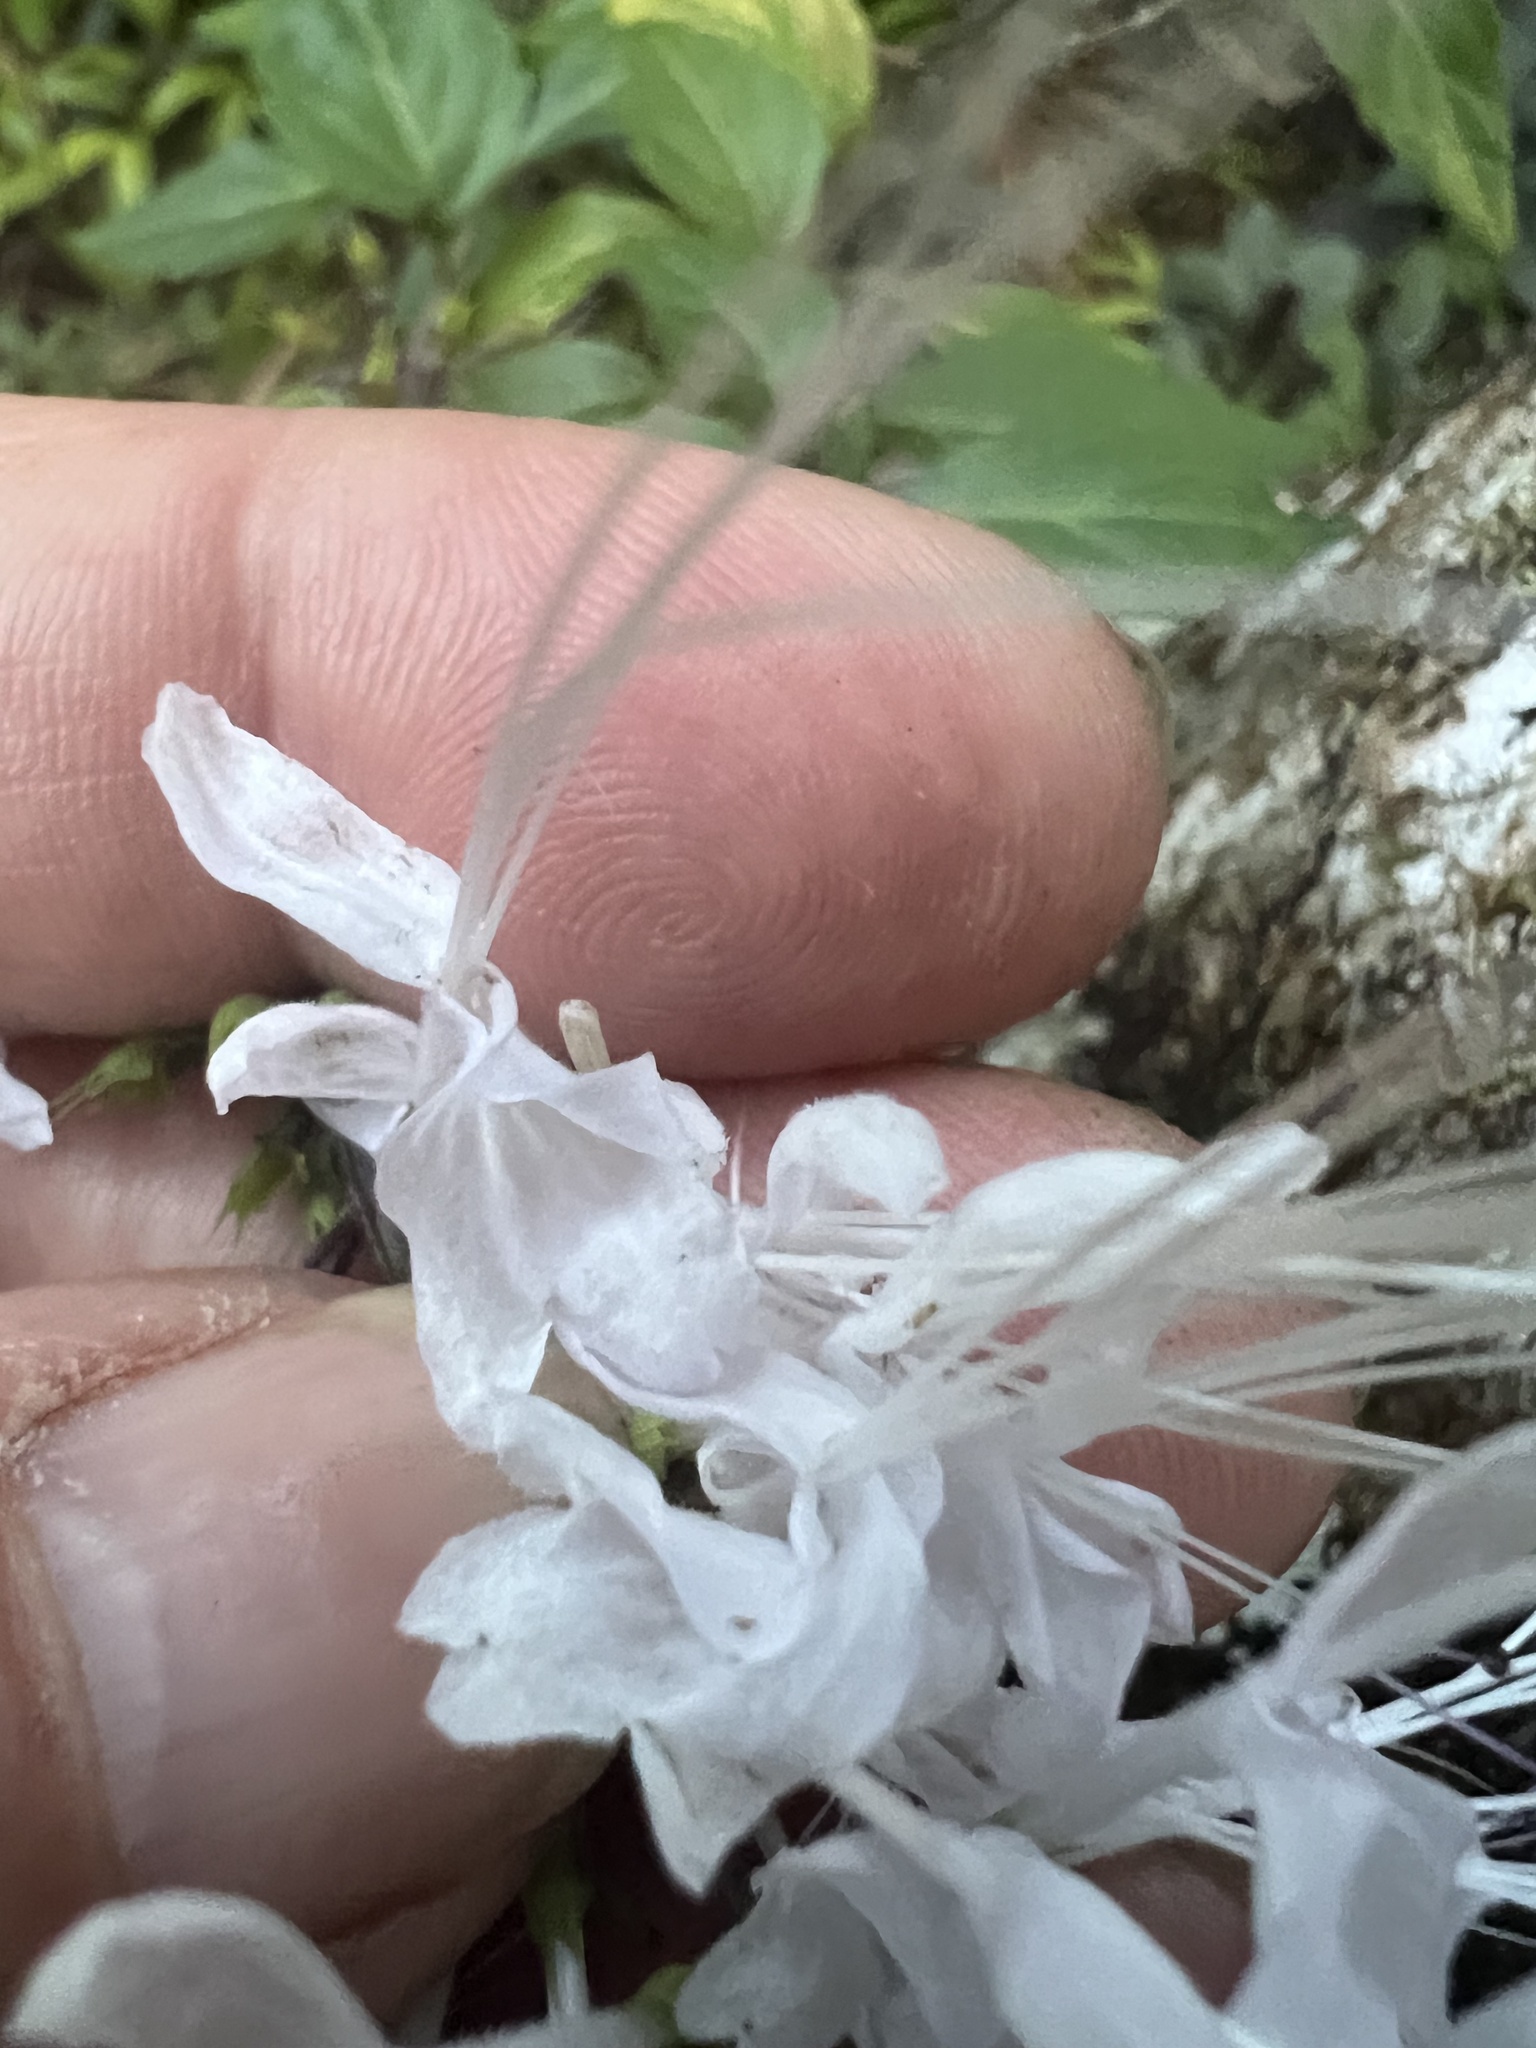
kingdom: Plantae
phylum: Tracheophyta
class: Magnoliopsida
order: Lamiales
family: Lamiaceae
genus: Orthosiphon
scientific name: Orthosiphon aristatus
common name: Whiskerplant
